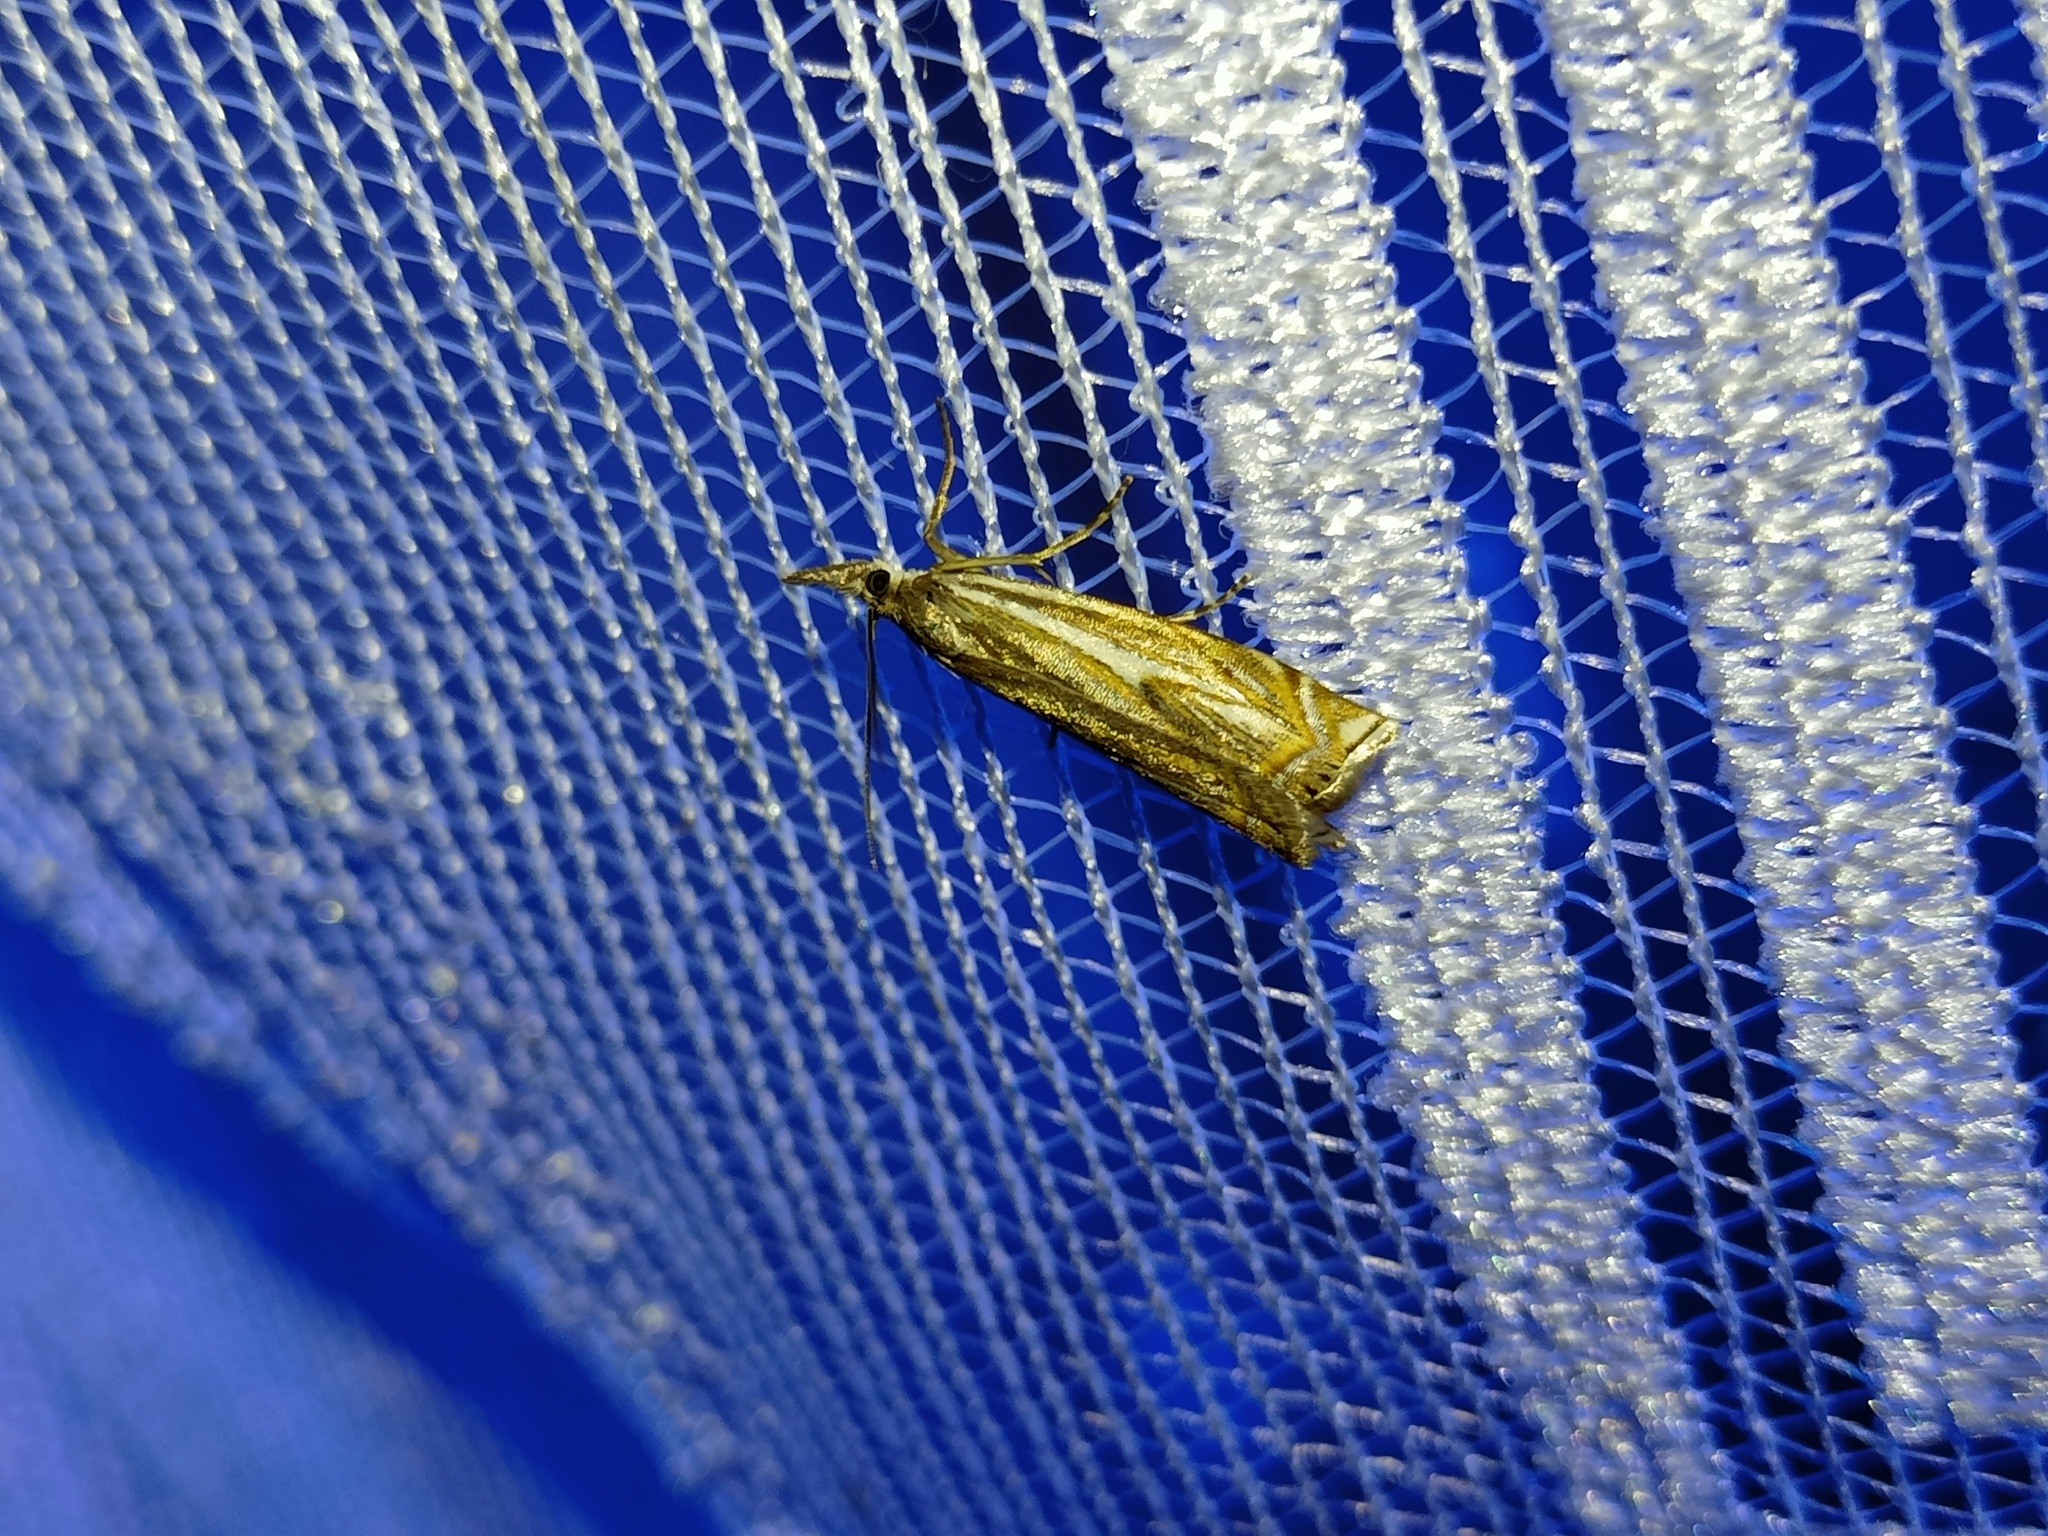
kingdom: Animalia
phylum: Arthropoda
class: Insecta
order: Lepidoptera
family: Crambidae
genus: Crambus
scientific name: Crambus nemorella
